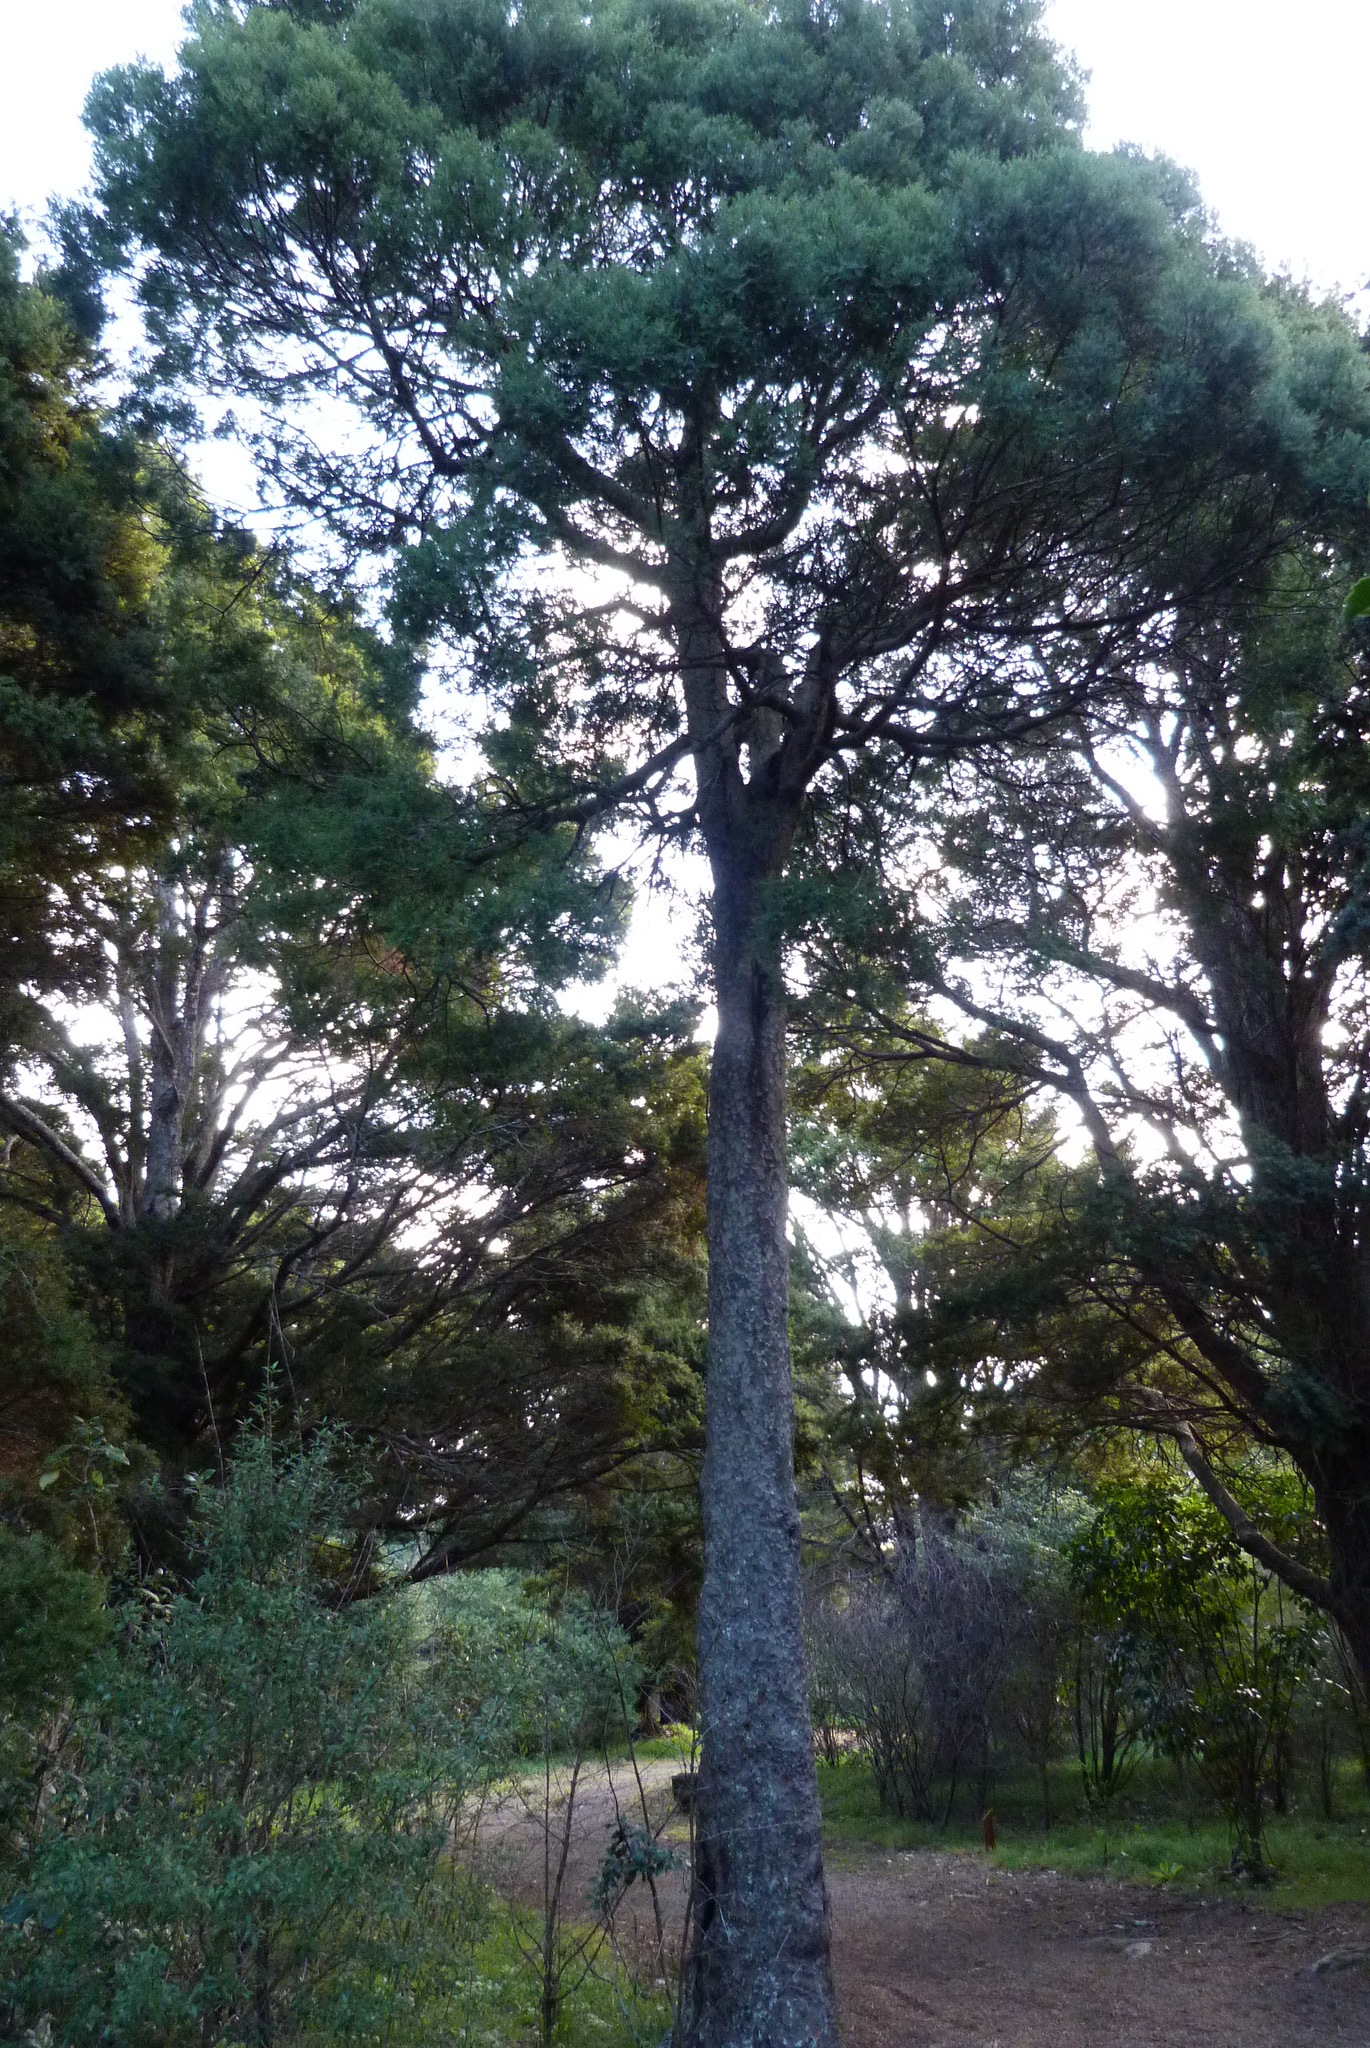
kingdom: Plantae
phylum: Tracheophyta
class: Pinopsida
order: Pinales
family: Podocarpaceae
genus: Prumnopitys
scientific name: Prumnopitys taxifolia
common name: Matai
